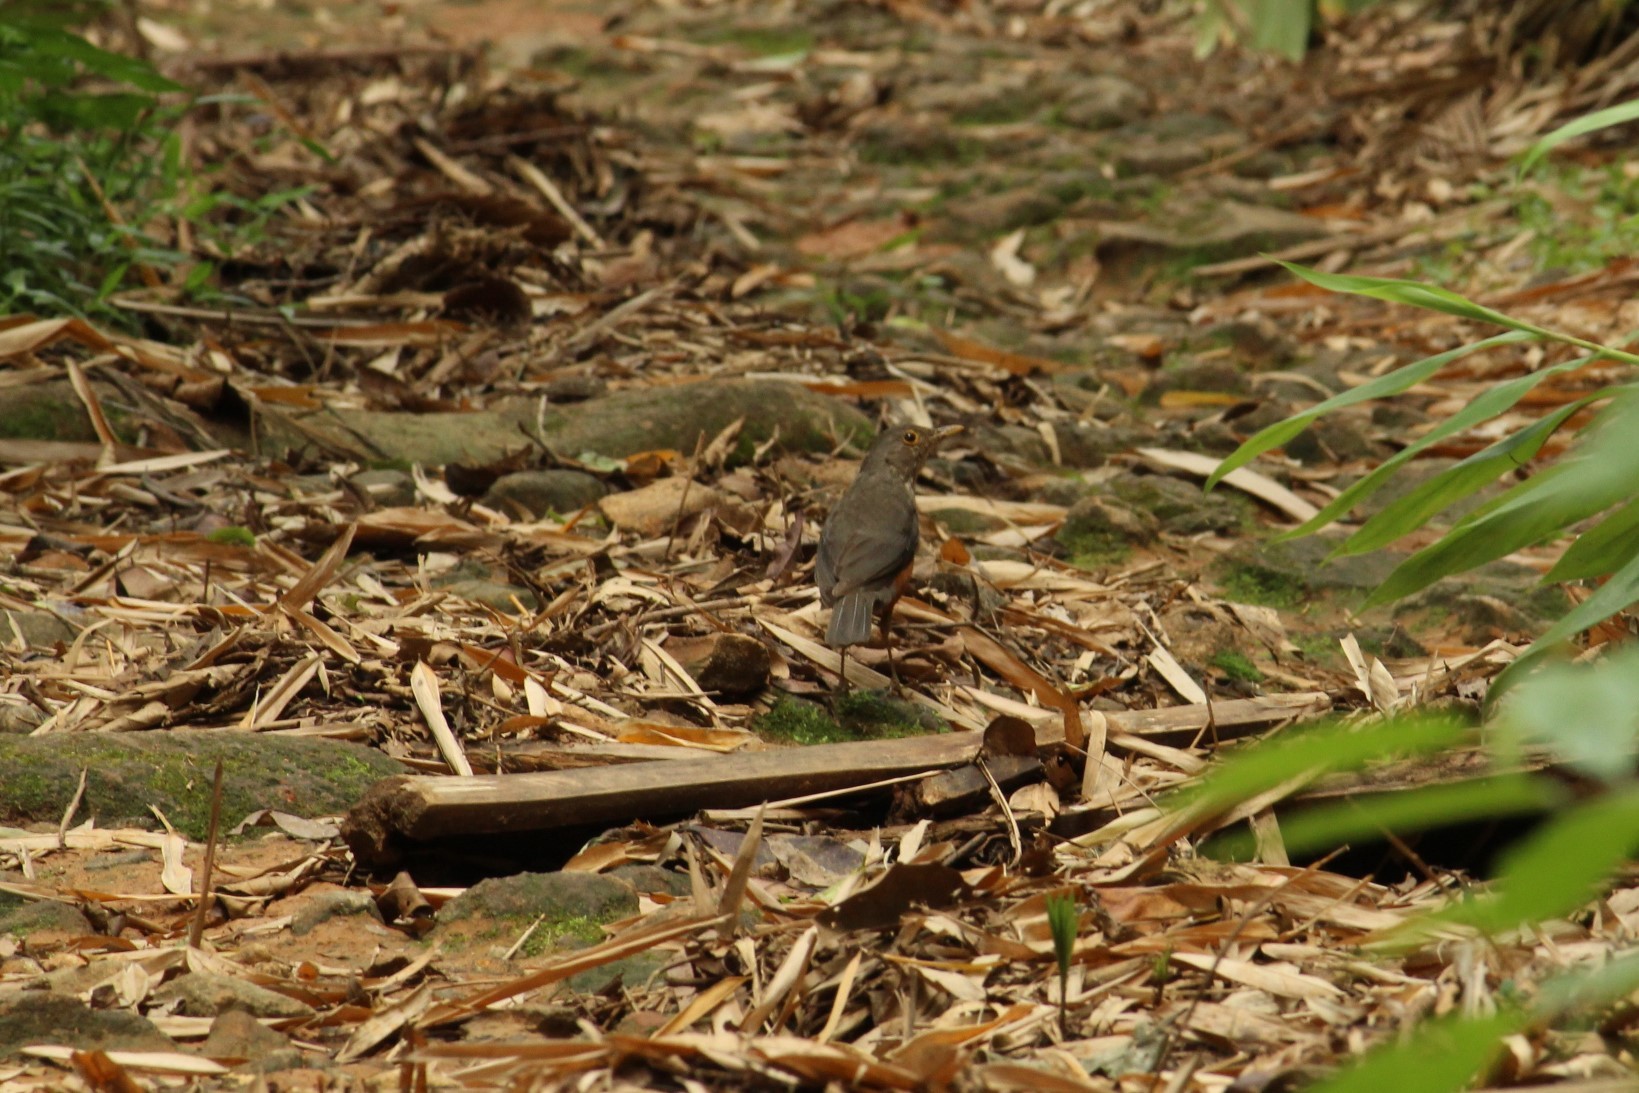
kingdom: Animalia
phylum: Chordata
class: Aves
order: Passeriformes
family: Turdidae
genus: Turdus
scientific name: Turdus rufiventris
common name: Rufous-bellied thrush
